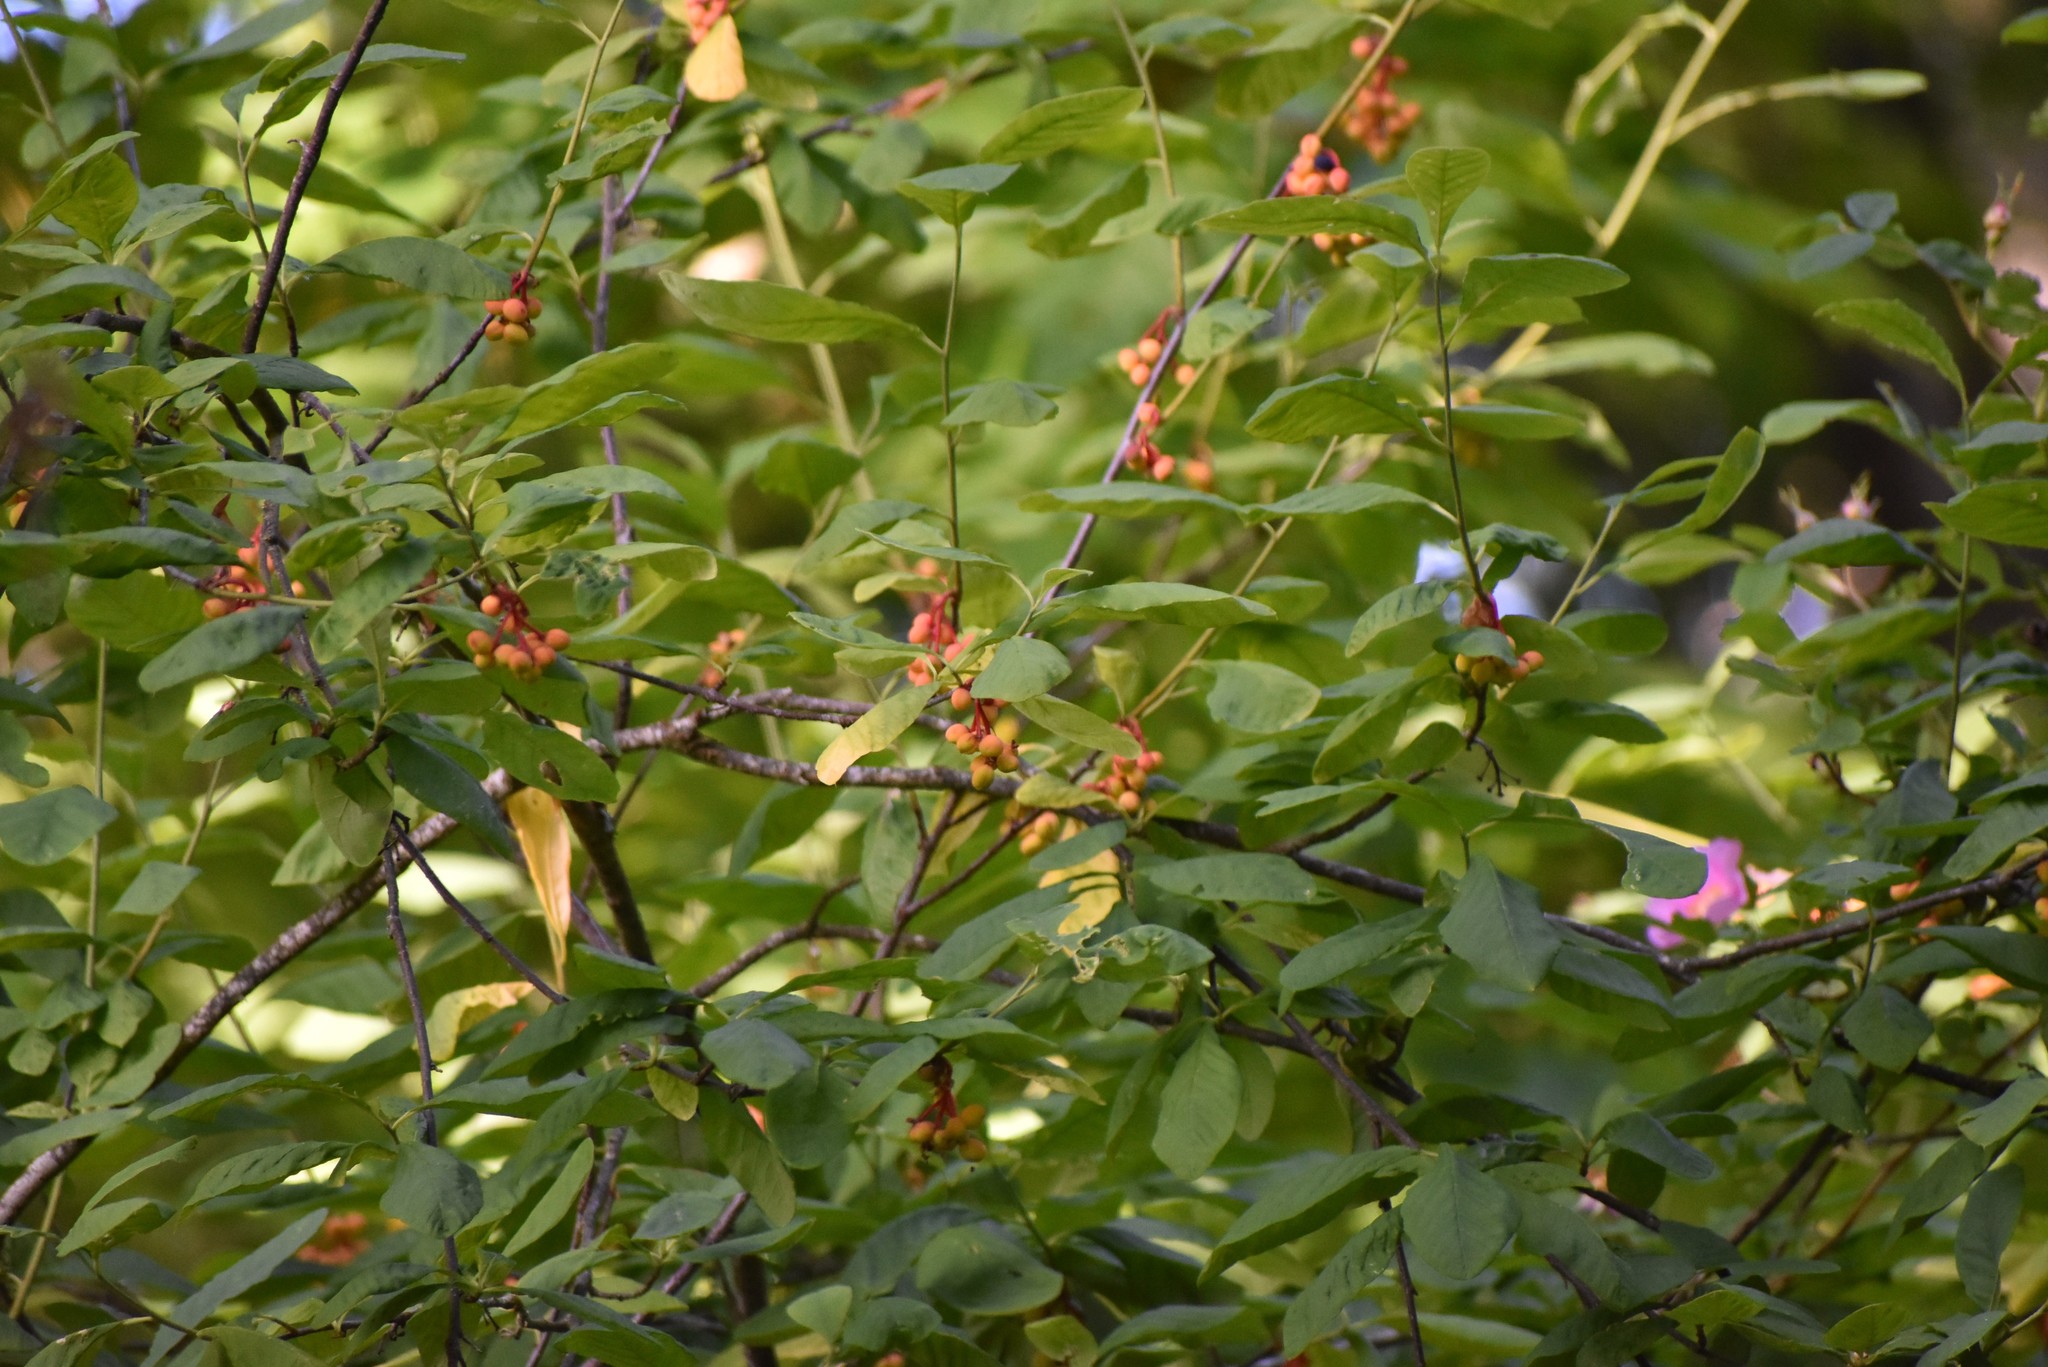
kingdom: Plantae
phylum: Tracheophyta
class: Magnoliopsida
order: Rosales
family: Rosaceae
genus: Oemleria
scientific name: Oemleria cerasiformis
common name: Osoberry
